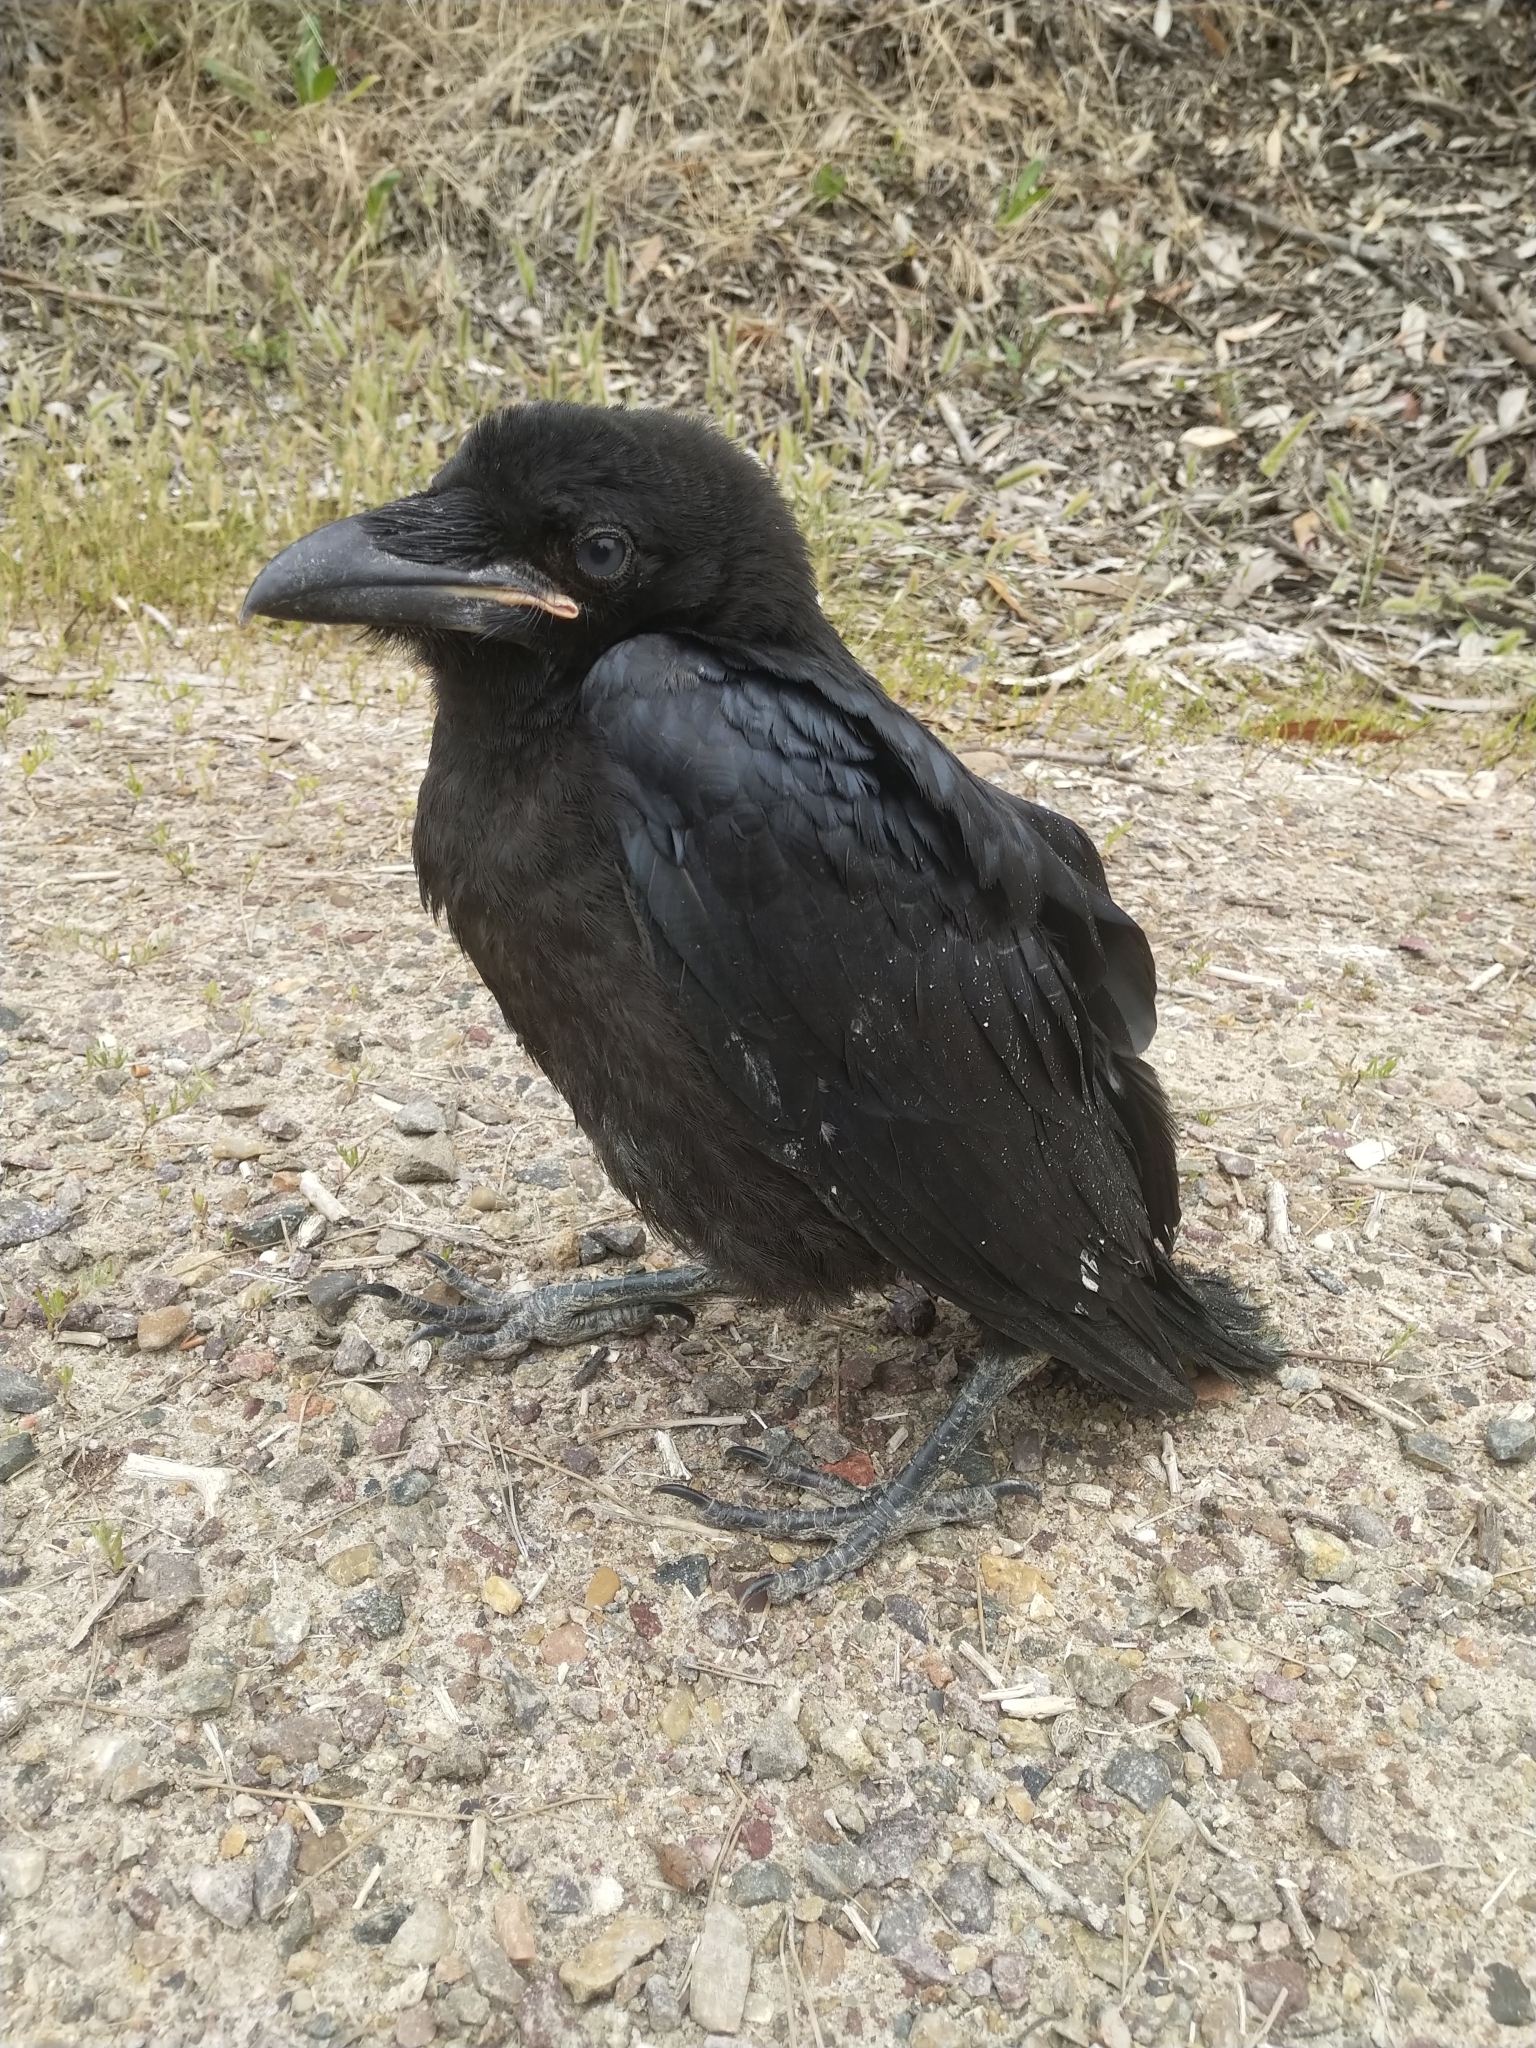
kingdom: Animalia
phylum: Chordata
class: Aves
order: Passeriformes
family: Corvidae
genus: Corvus
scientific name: Corvus brachyrhynchos
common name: American crow
